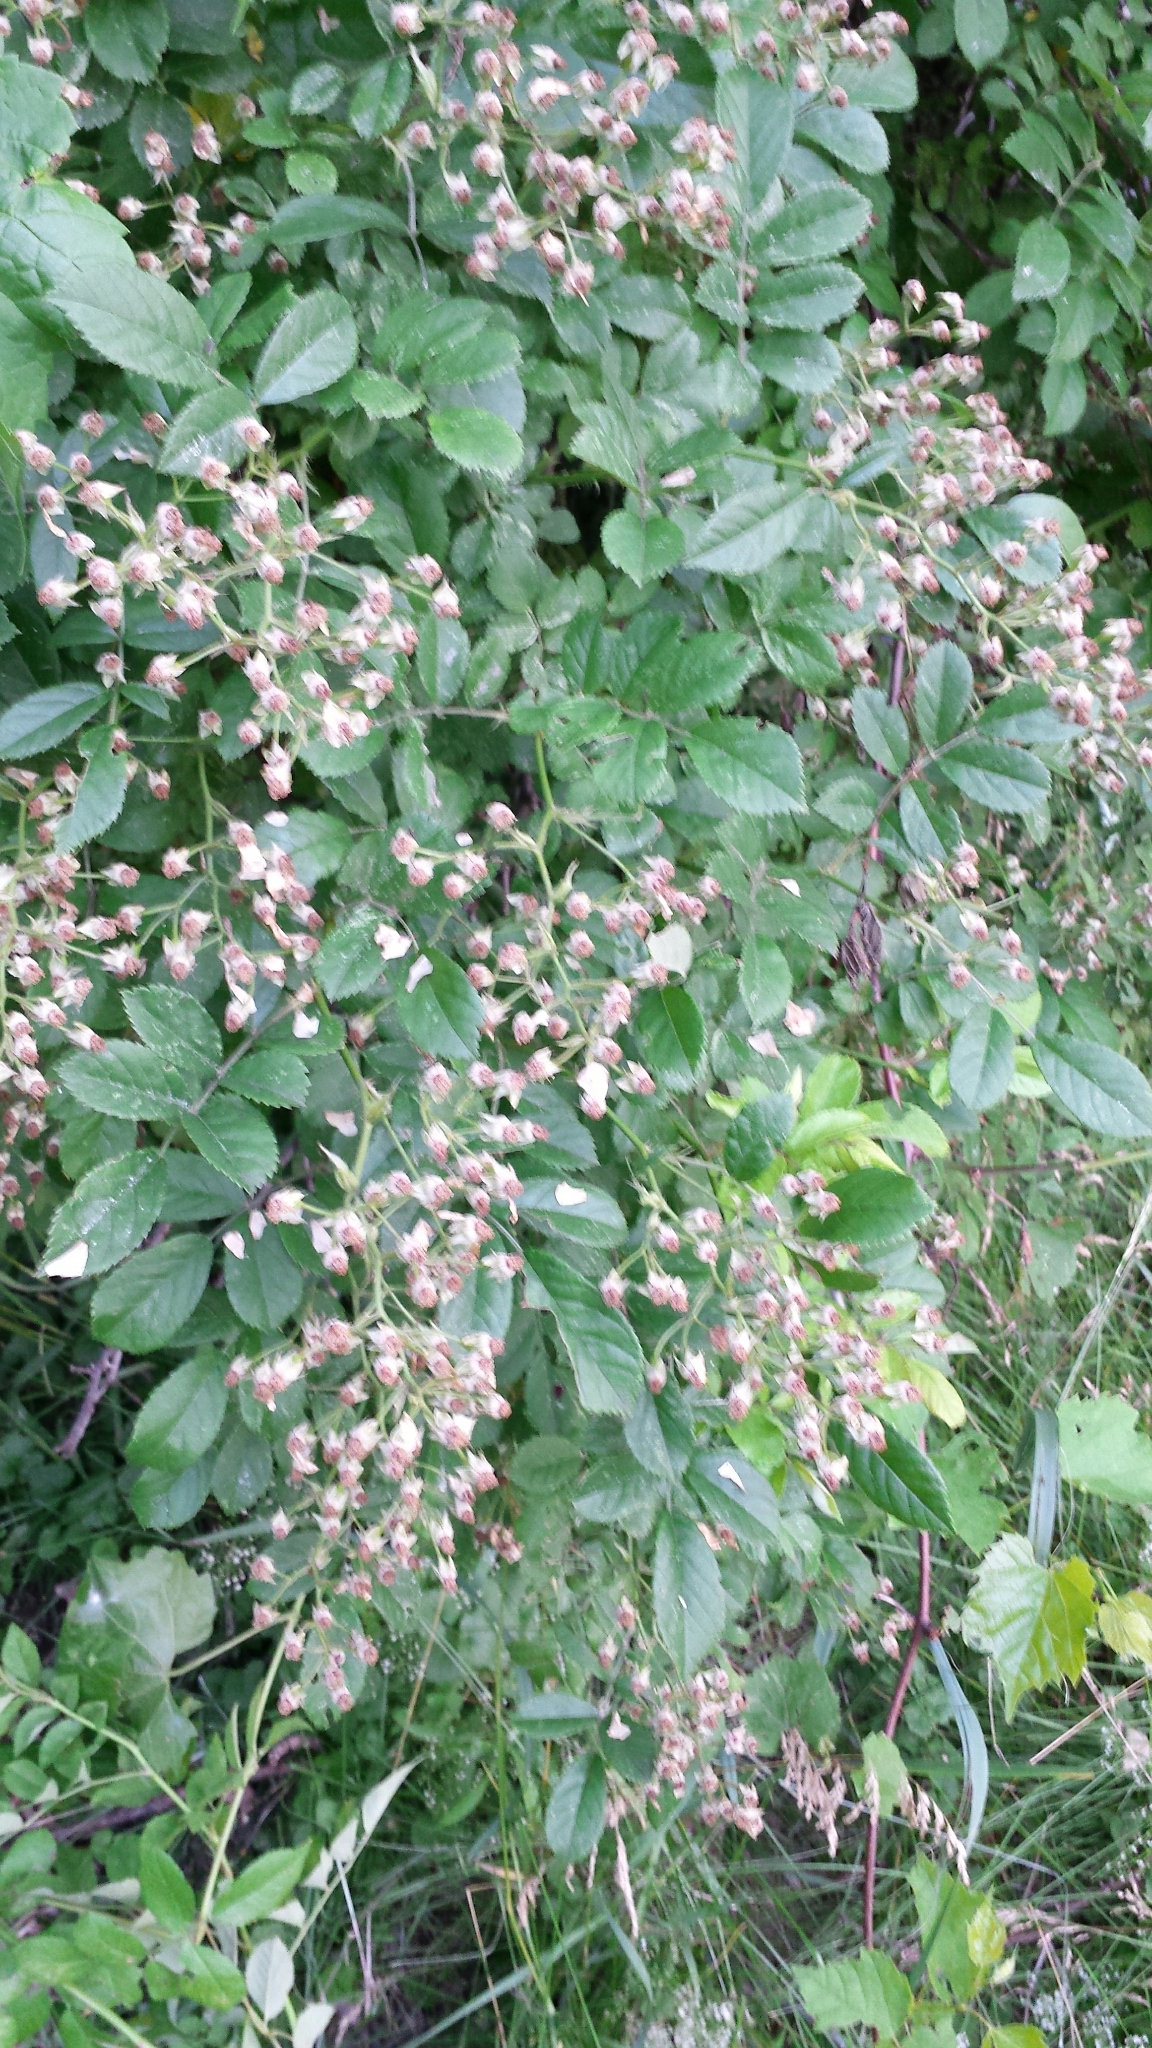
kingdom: Plantae
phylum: Tracheophyta
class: Magnoliopsida
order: Rosales
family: Rosaceae
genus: Rosa
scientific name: Rosa multiflora
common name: Multiflora rose
